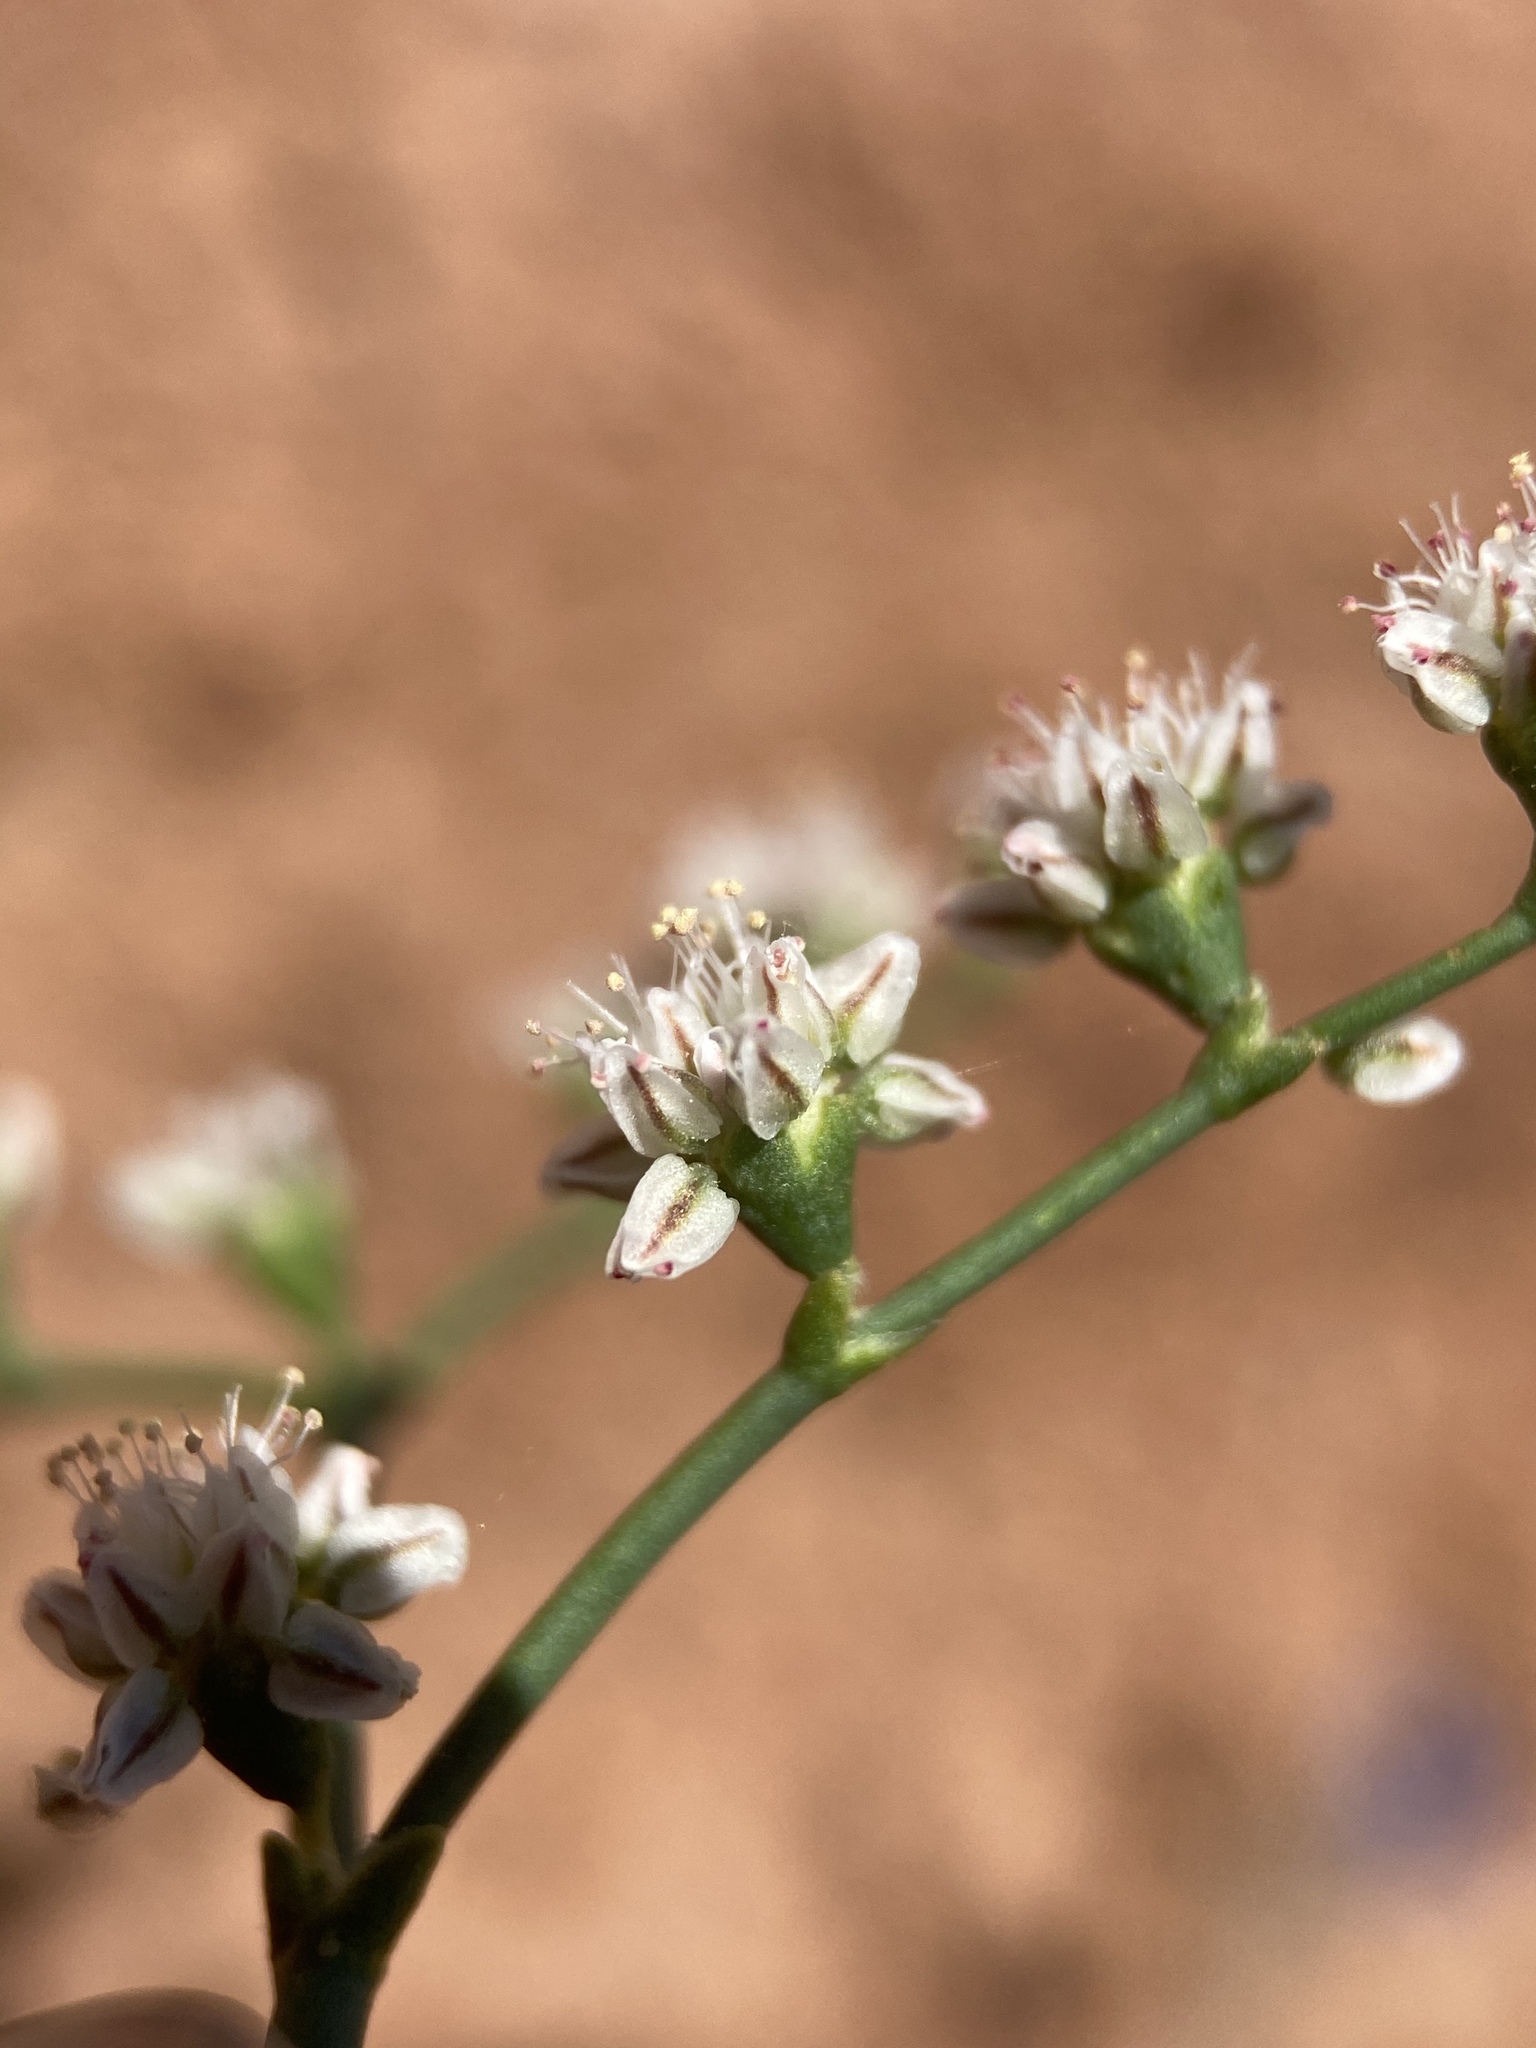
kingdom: Plantae
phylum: Tracheophyta
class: Magnoliopsida
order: Caryophyllales
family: Polygonaceae
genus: Eriogonum
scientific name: Eriogonum exaltatum
